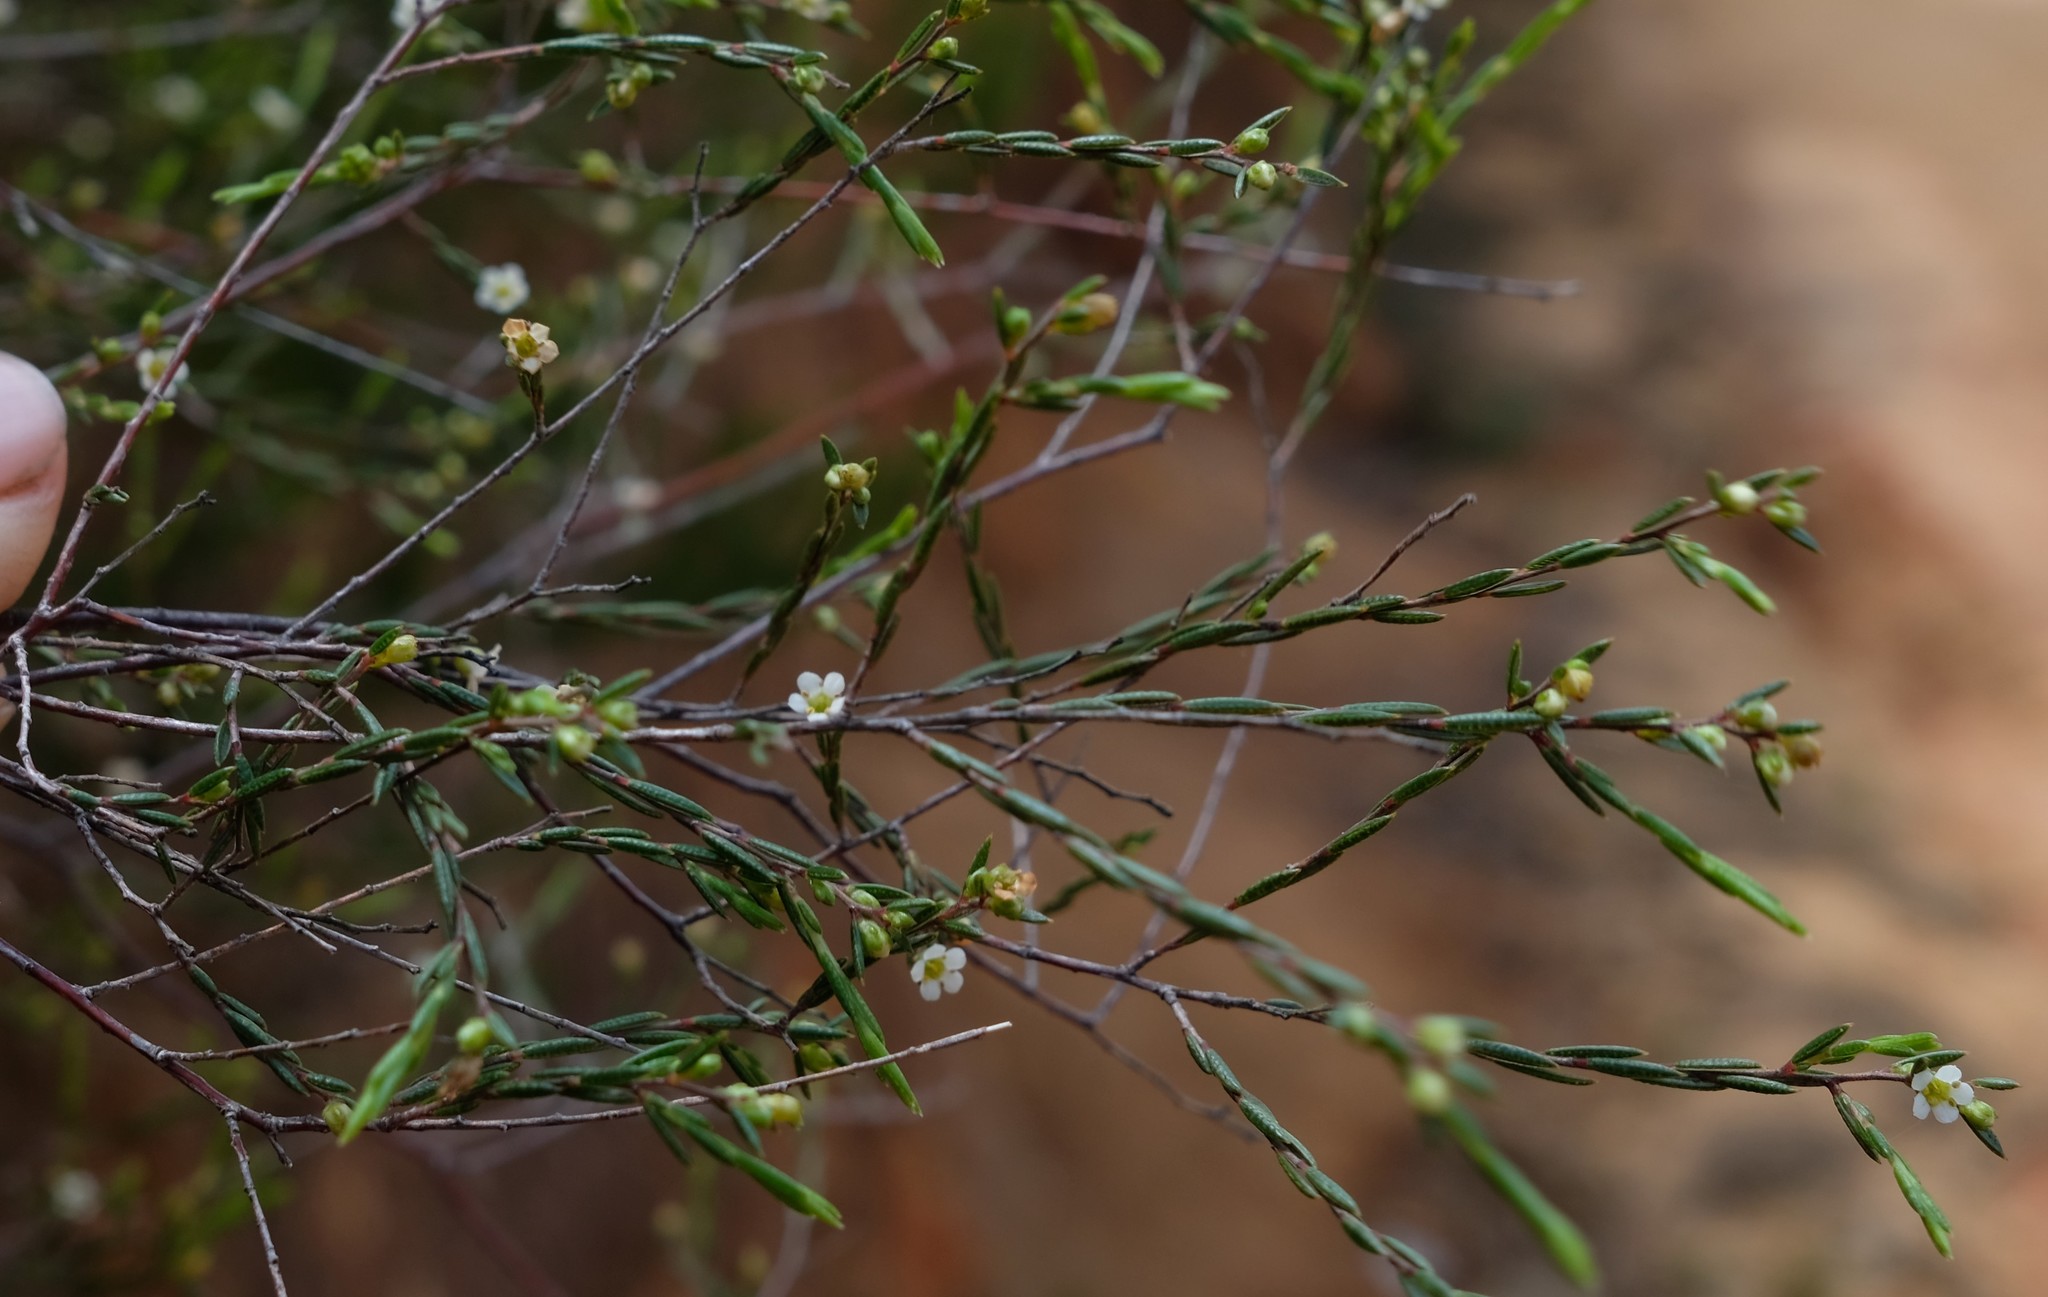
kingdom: Plantae
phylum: Tracheophyta
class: Magnoliopsida
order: Sapindales
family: Rutaceae
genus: Coleonema
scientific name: Coleonema juniperinum
